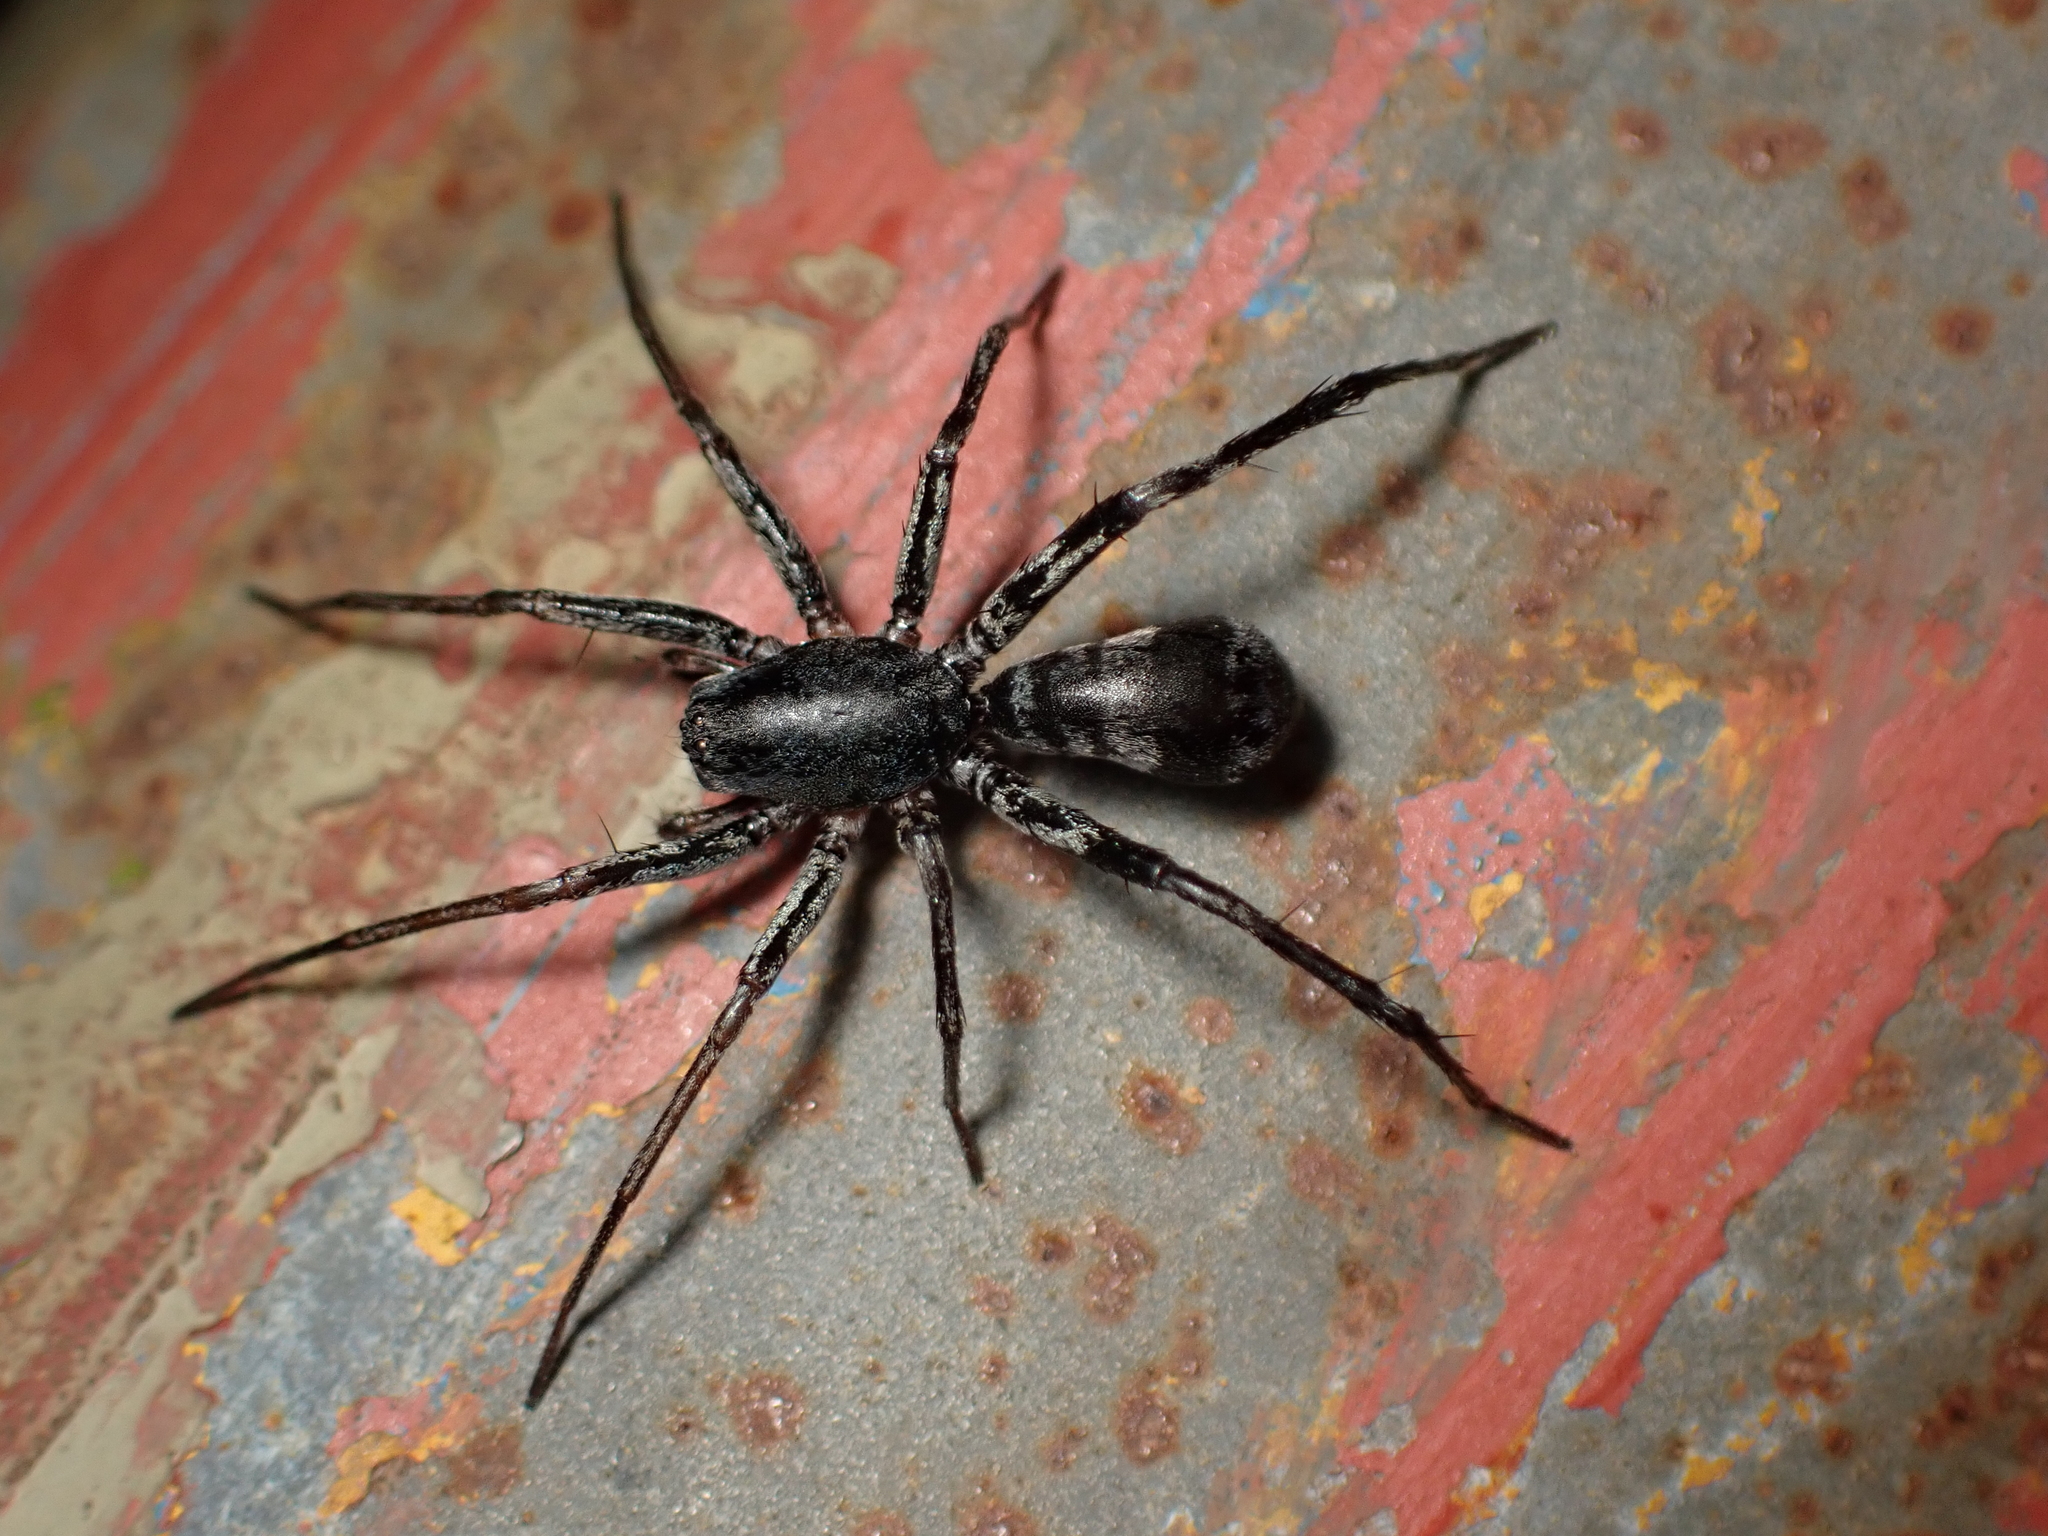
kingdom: Animalia
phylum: Arthropoda
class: Arachnida
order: Araneae
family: Corinnidae
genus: Corinnomma
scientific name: Corinnomma severum
